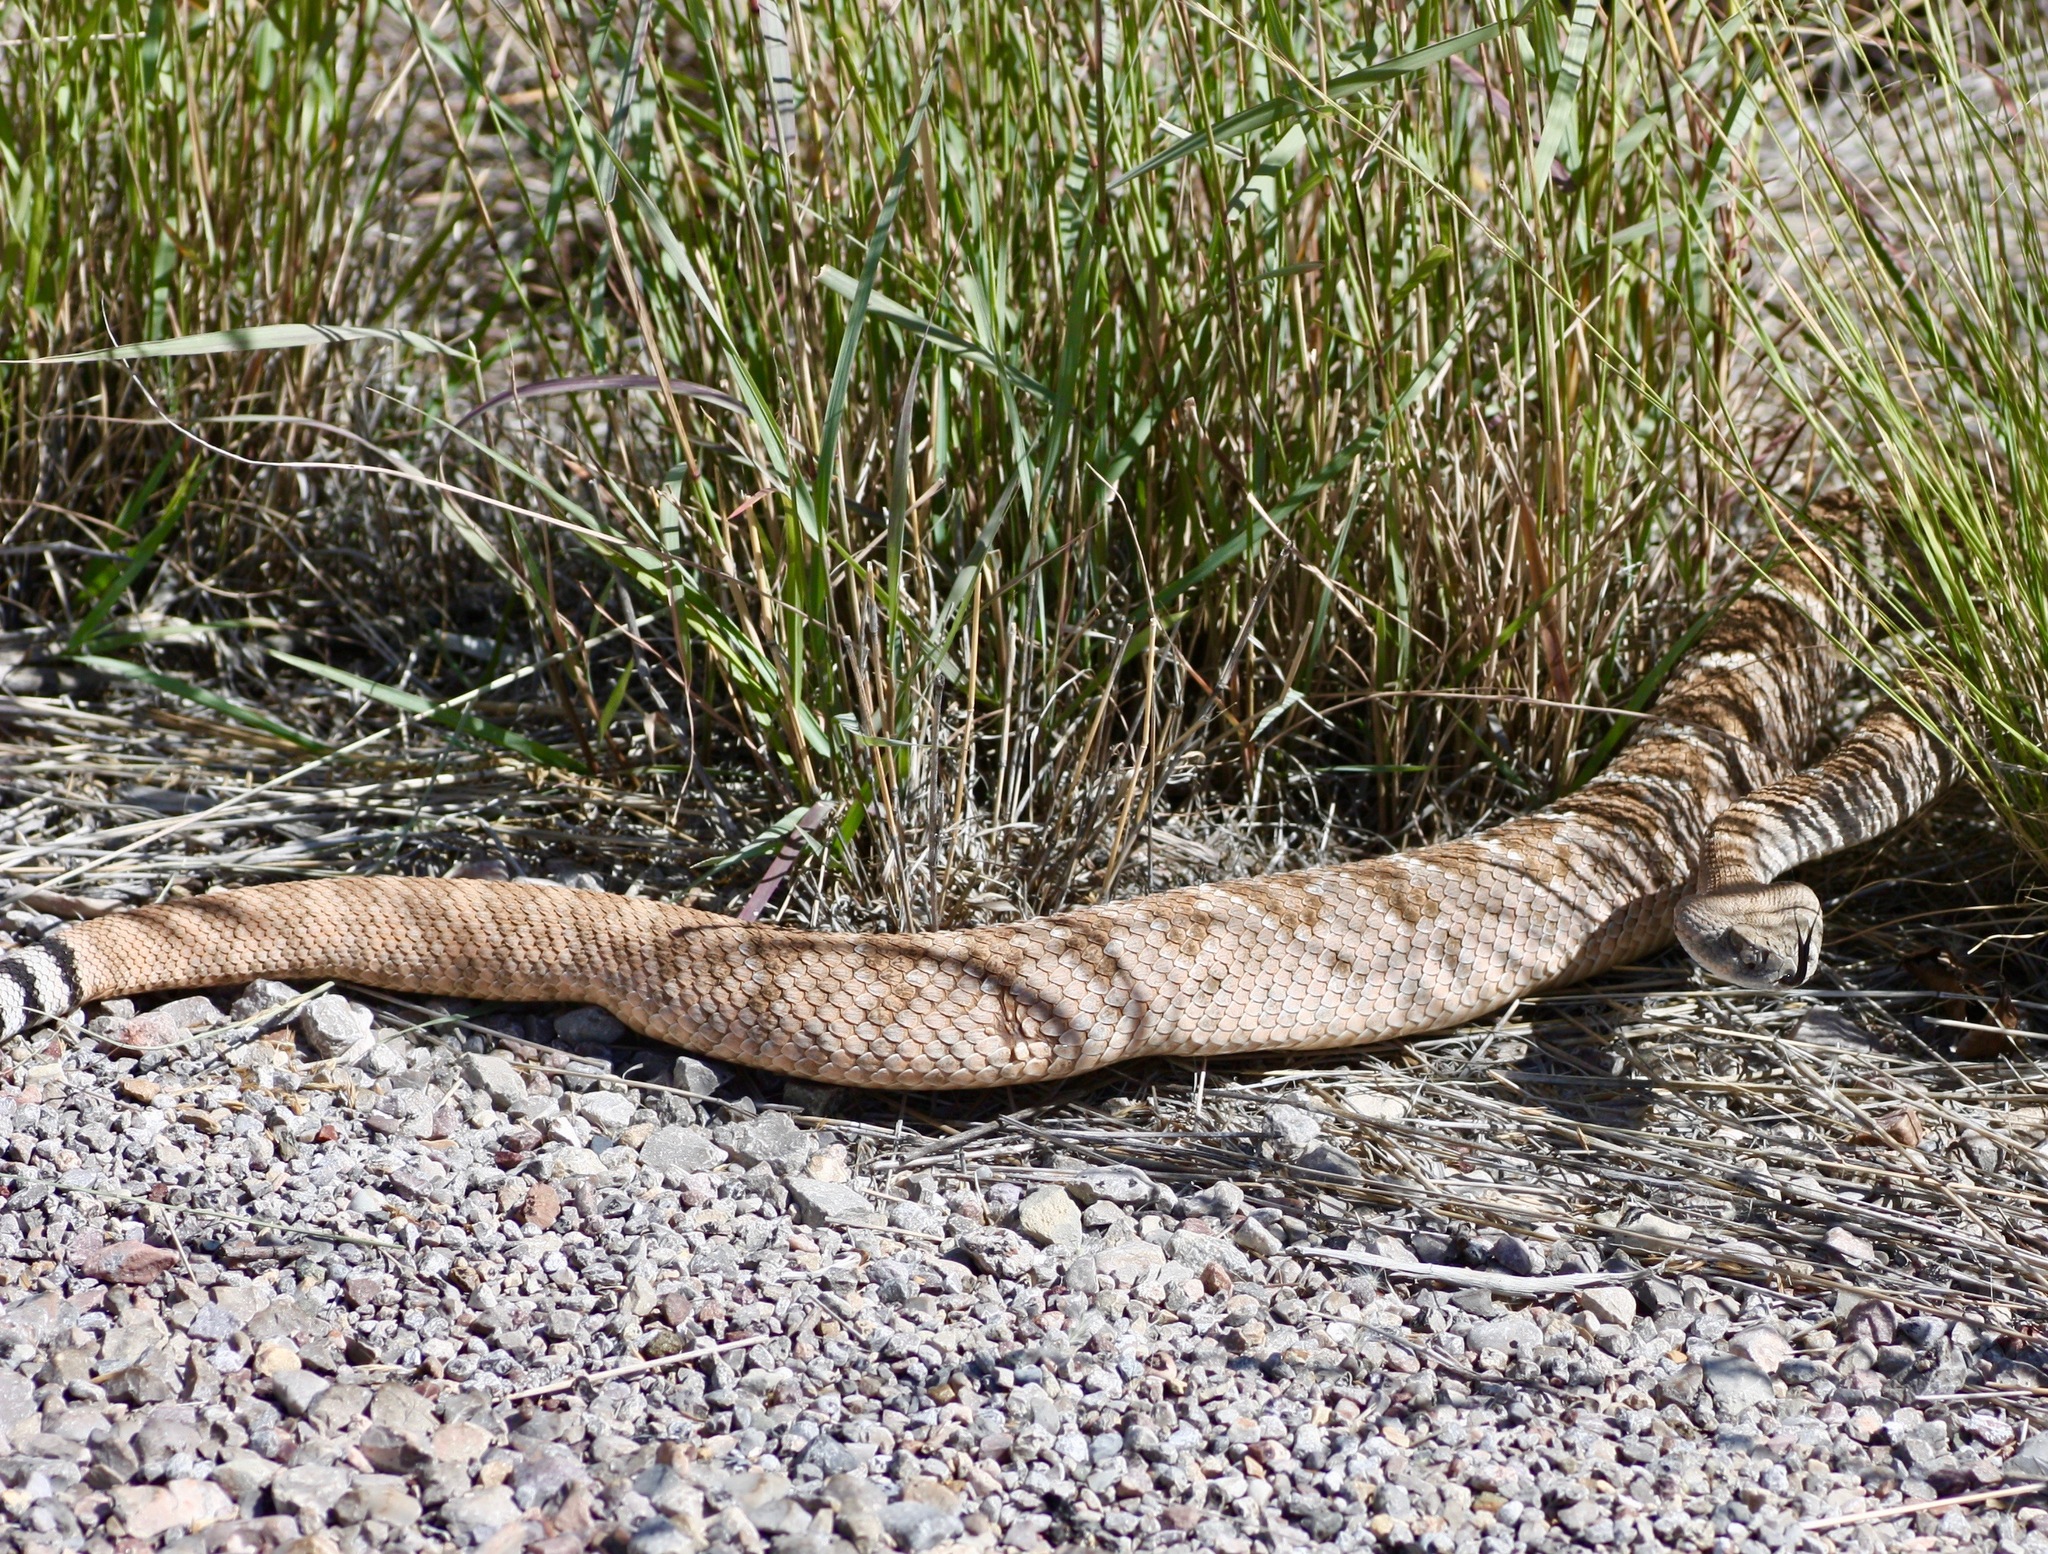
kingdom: Animalia
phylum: Chordata
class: Squamata
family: Viperidae
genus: Crotalus
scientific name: Crotalus atrox
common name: Western diamond-backed rattlesnake
